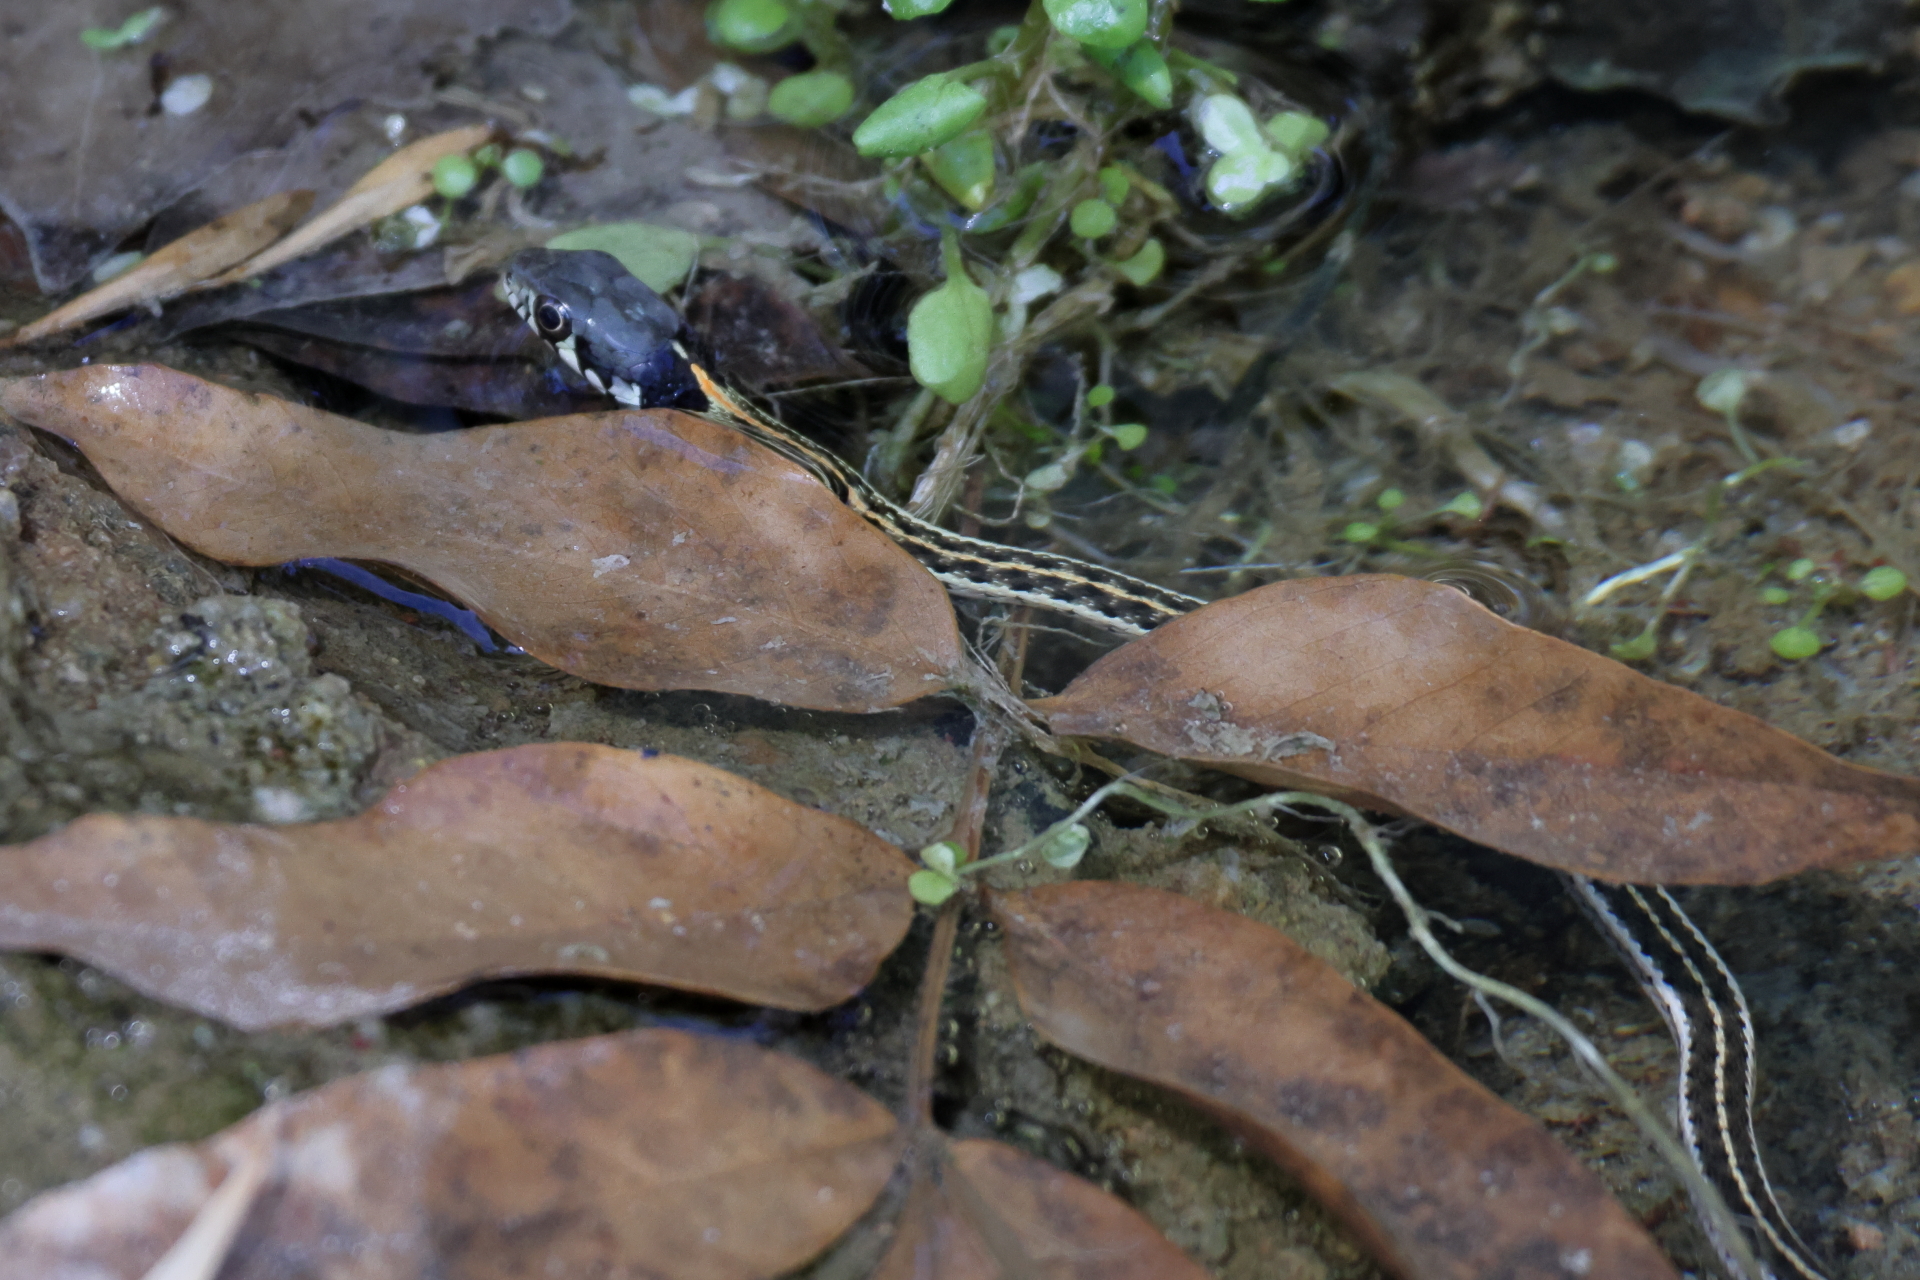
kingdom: Animalia
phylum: Chordata
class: Squamata
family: Colubridae
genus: Thamnophis
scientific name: Thamnophis cyrtopsis
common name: Black-necked gartersnake
